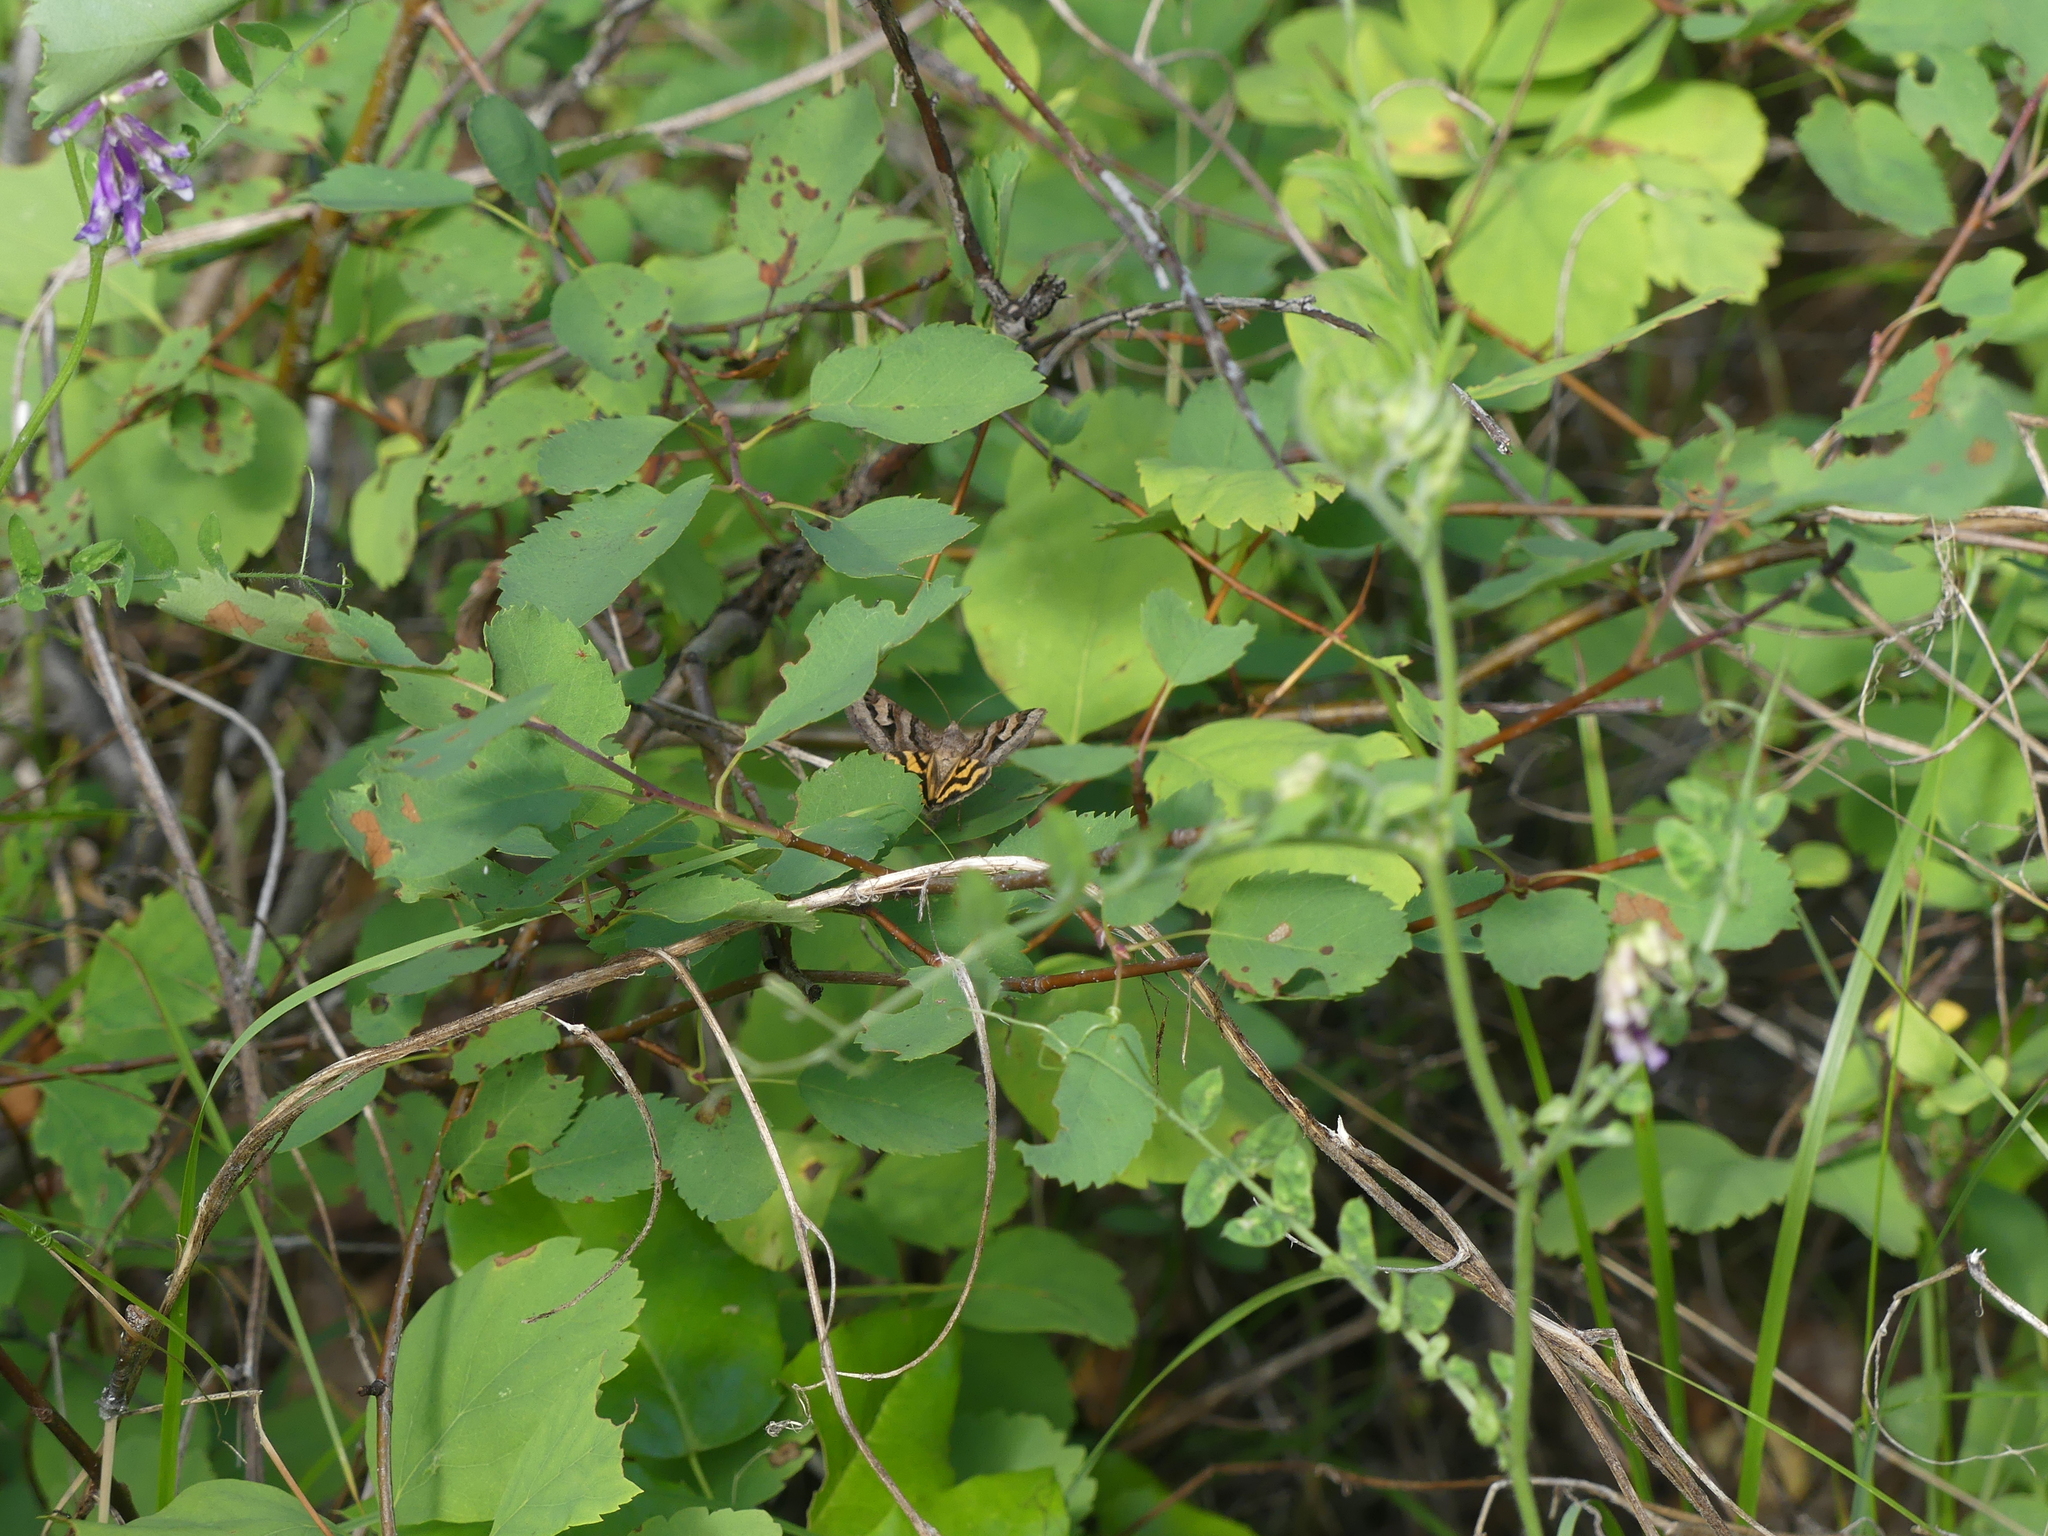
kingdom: Animalia
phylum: Arthropoda
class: Insecta
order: Lepidoptera
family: Erebidae
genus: Drasteria
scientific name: Drasteria adumbrata
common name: Shadowy arches
